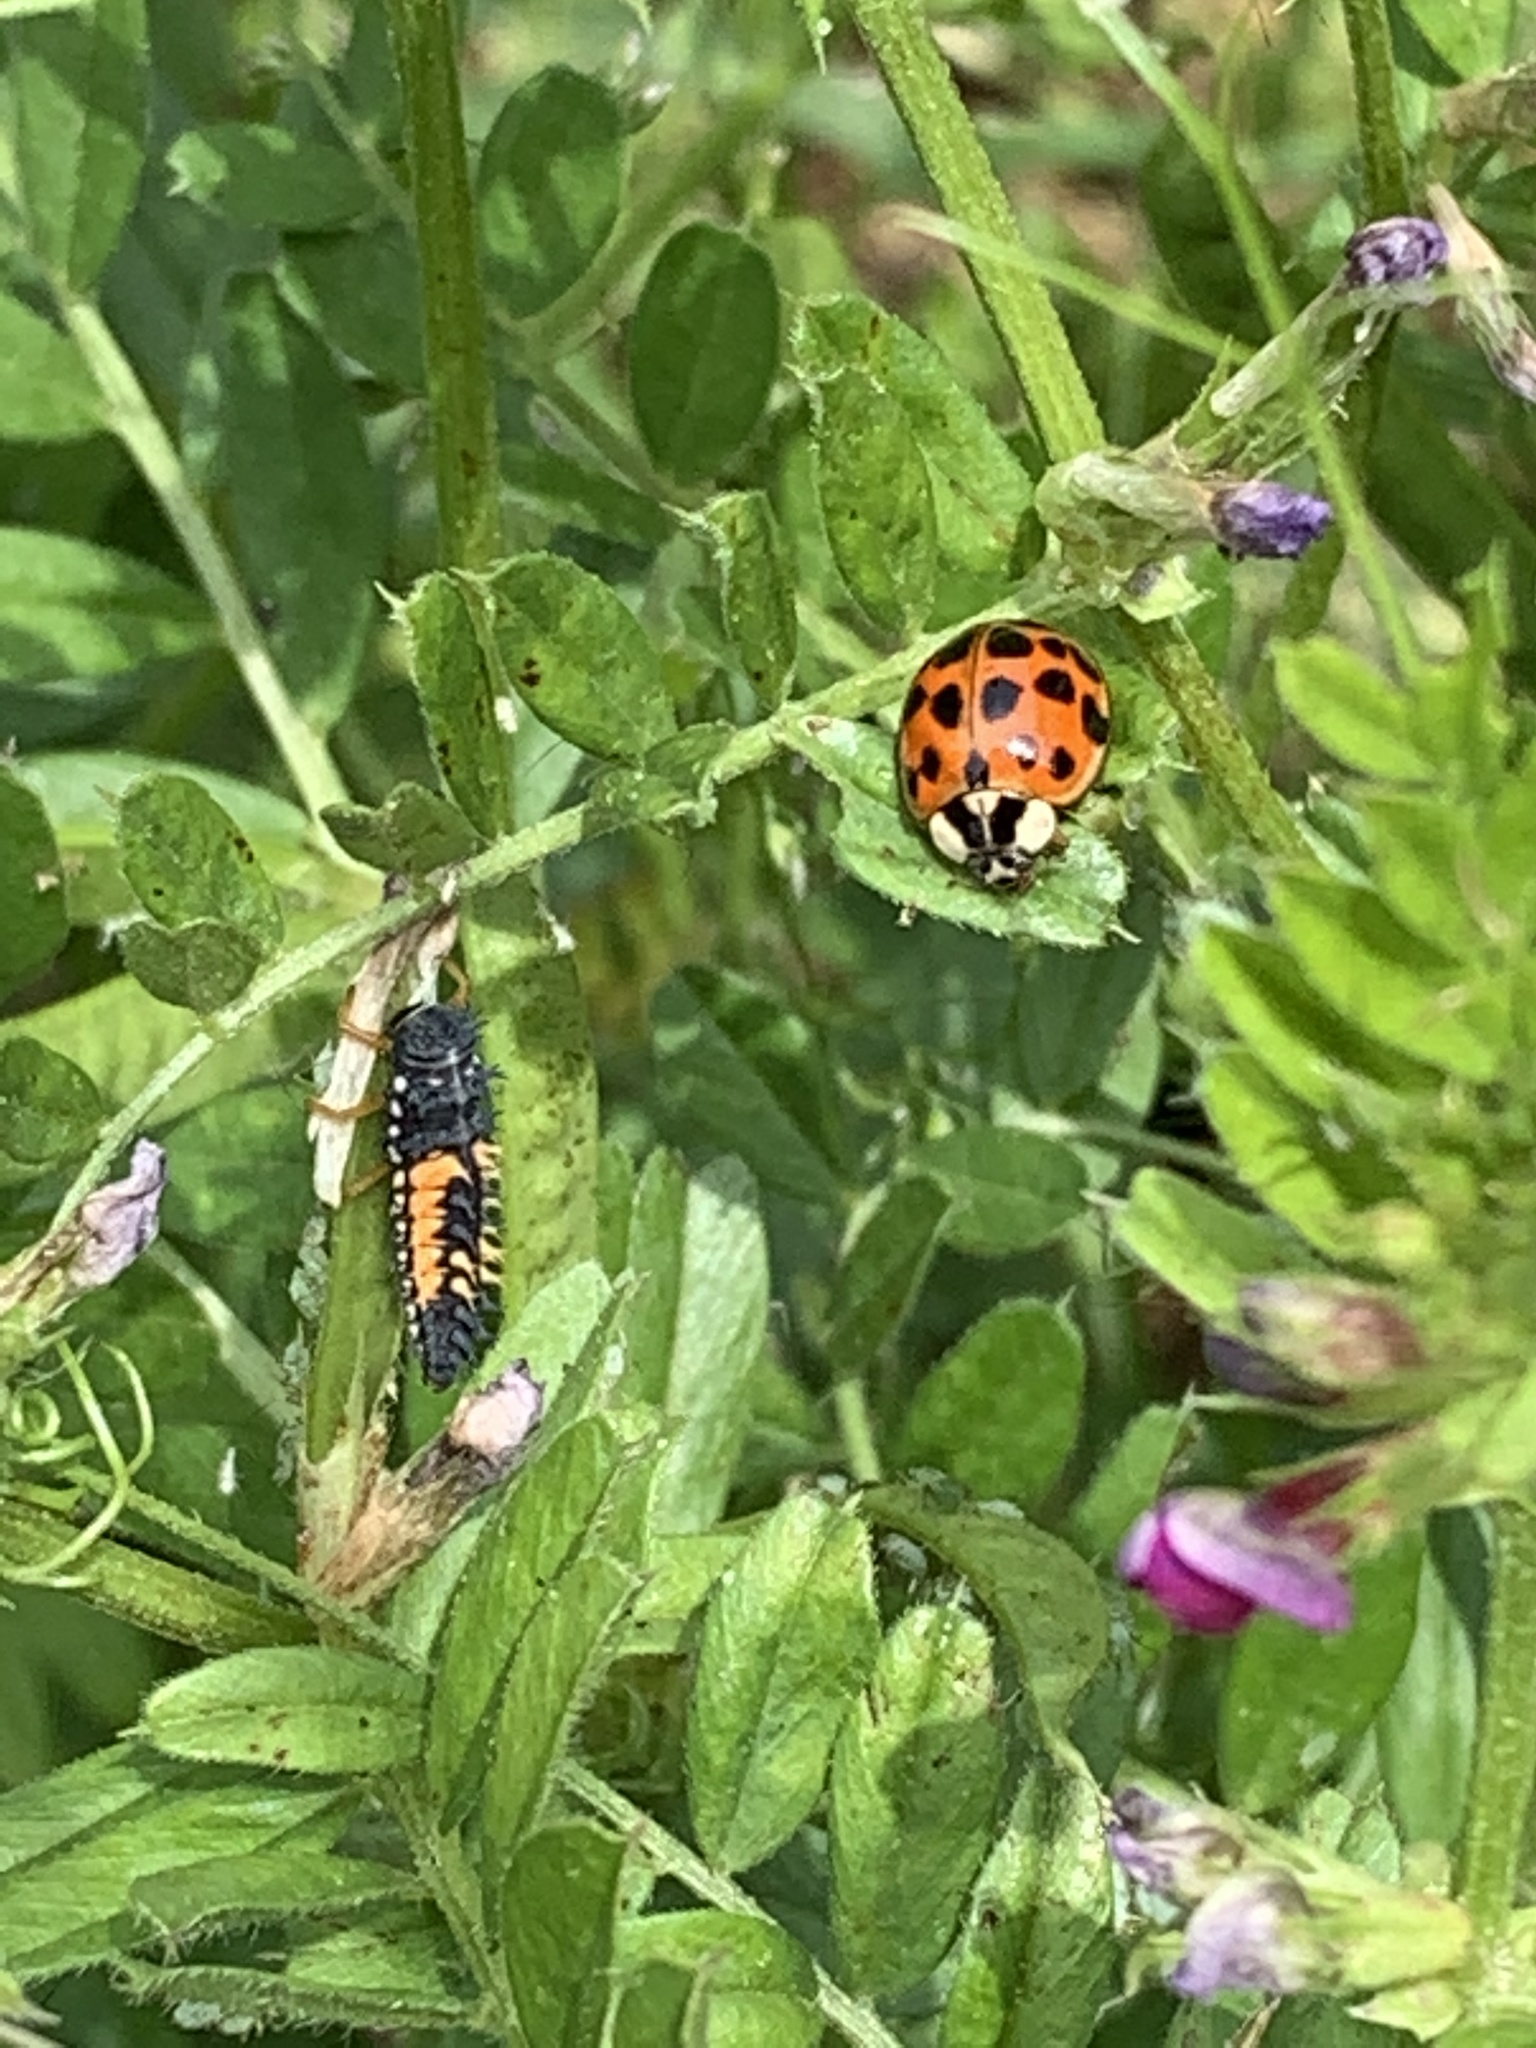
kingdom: Animalia
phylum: Arthropoda
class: Insecta
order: Coleoptera
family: Coccinellidae
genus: Harmonia
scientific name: Harmonia axyridis
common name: Harlequin ladybird
